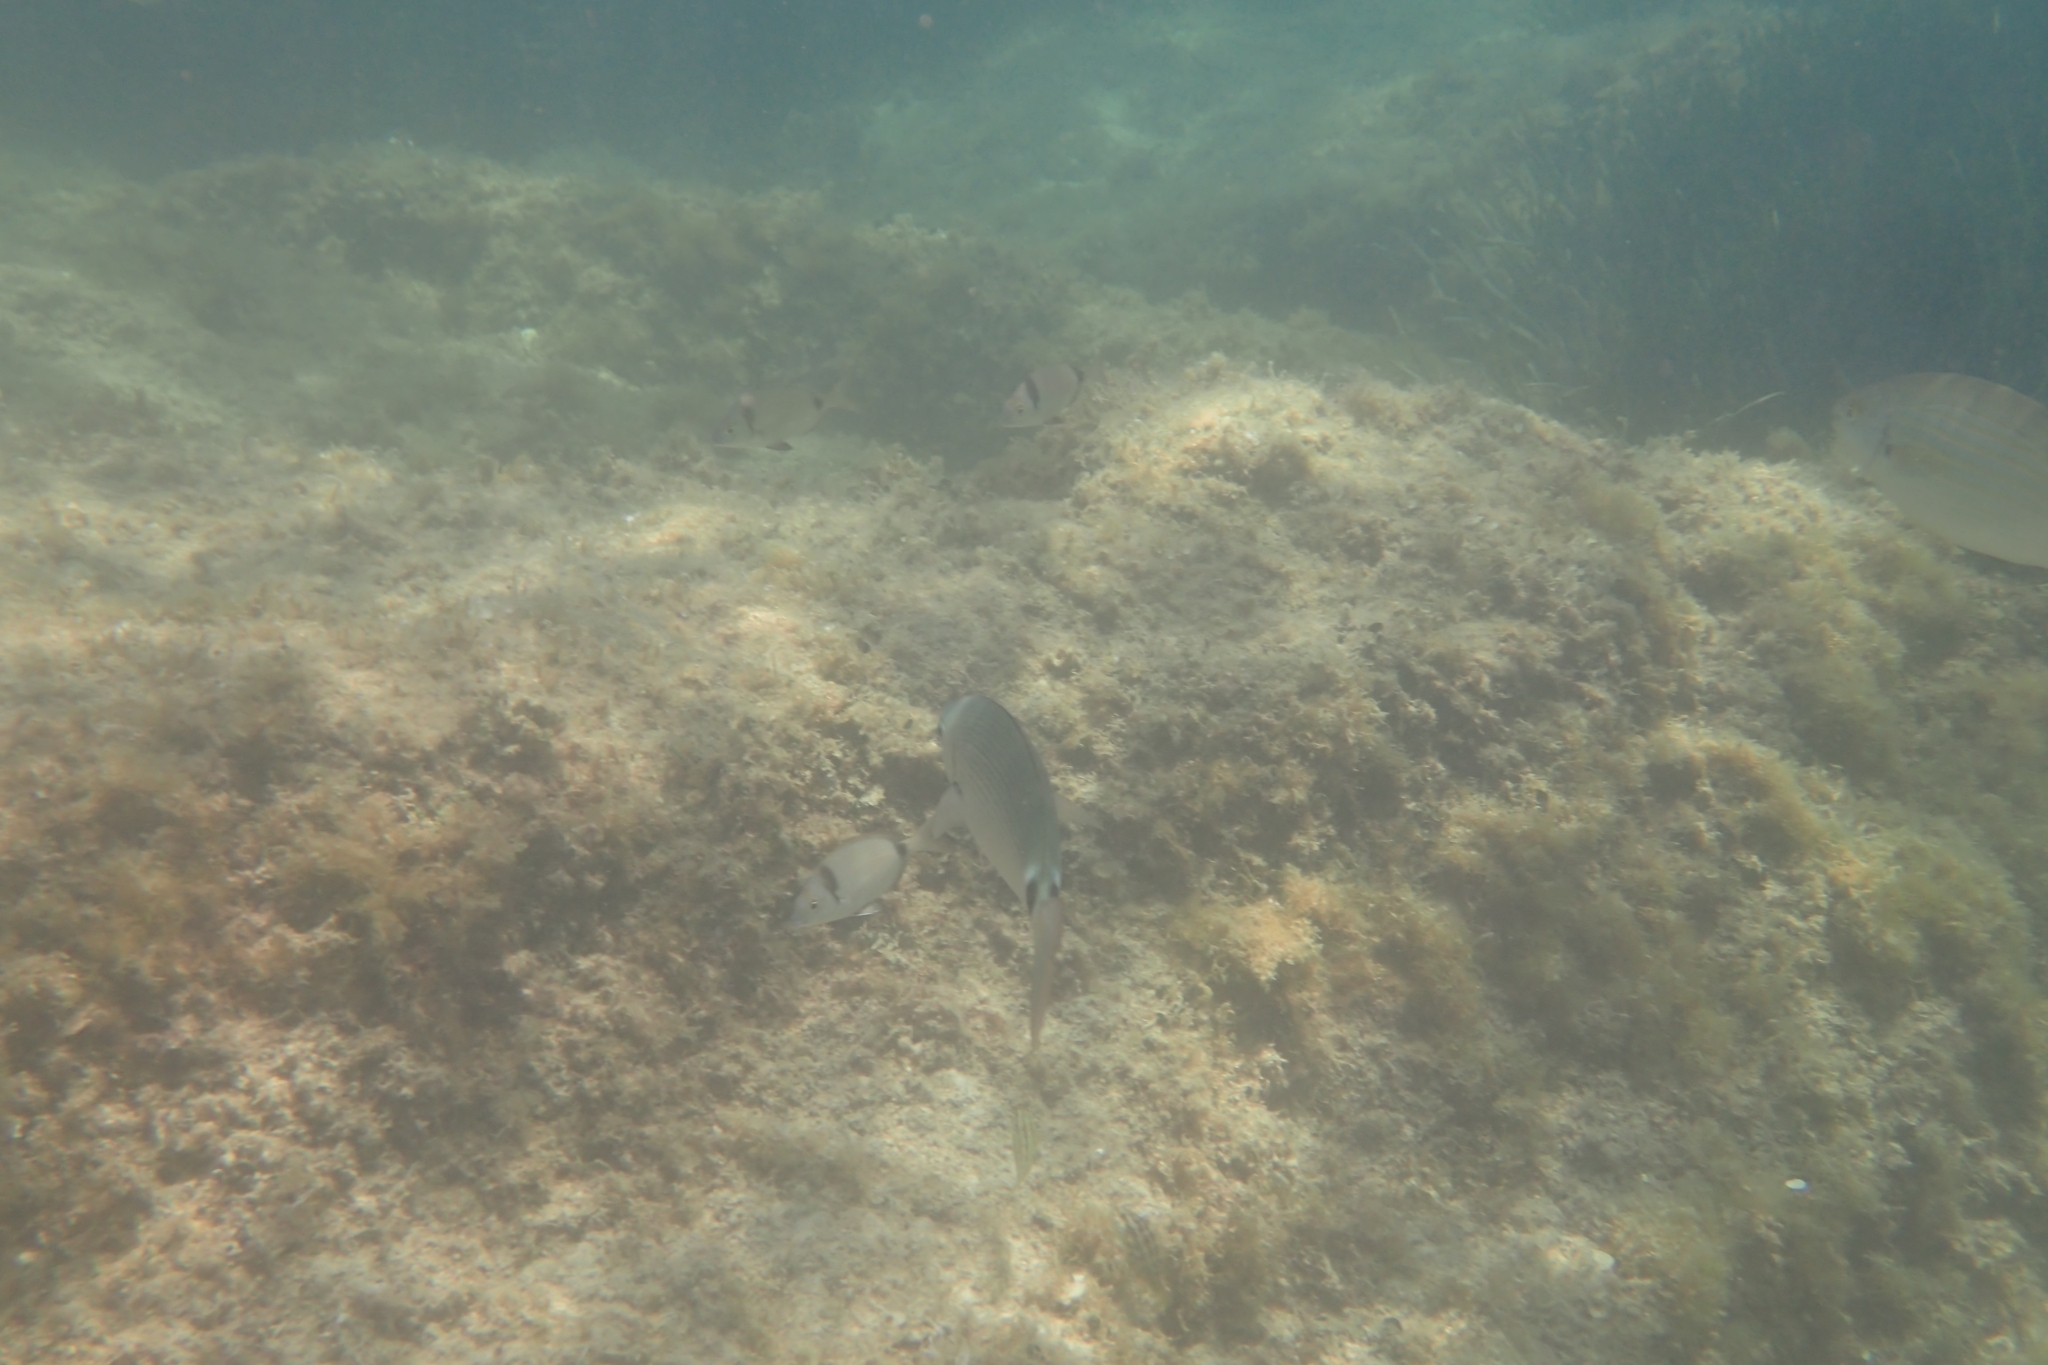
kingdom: Animalia
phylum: Chordata
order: Perciformes
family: Sparidae
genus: Oblada
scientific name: Oblada melanura
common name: Saddled seabream
